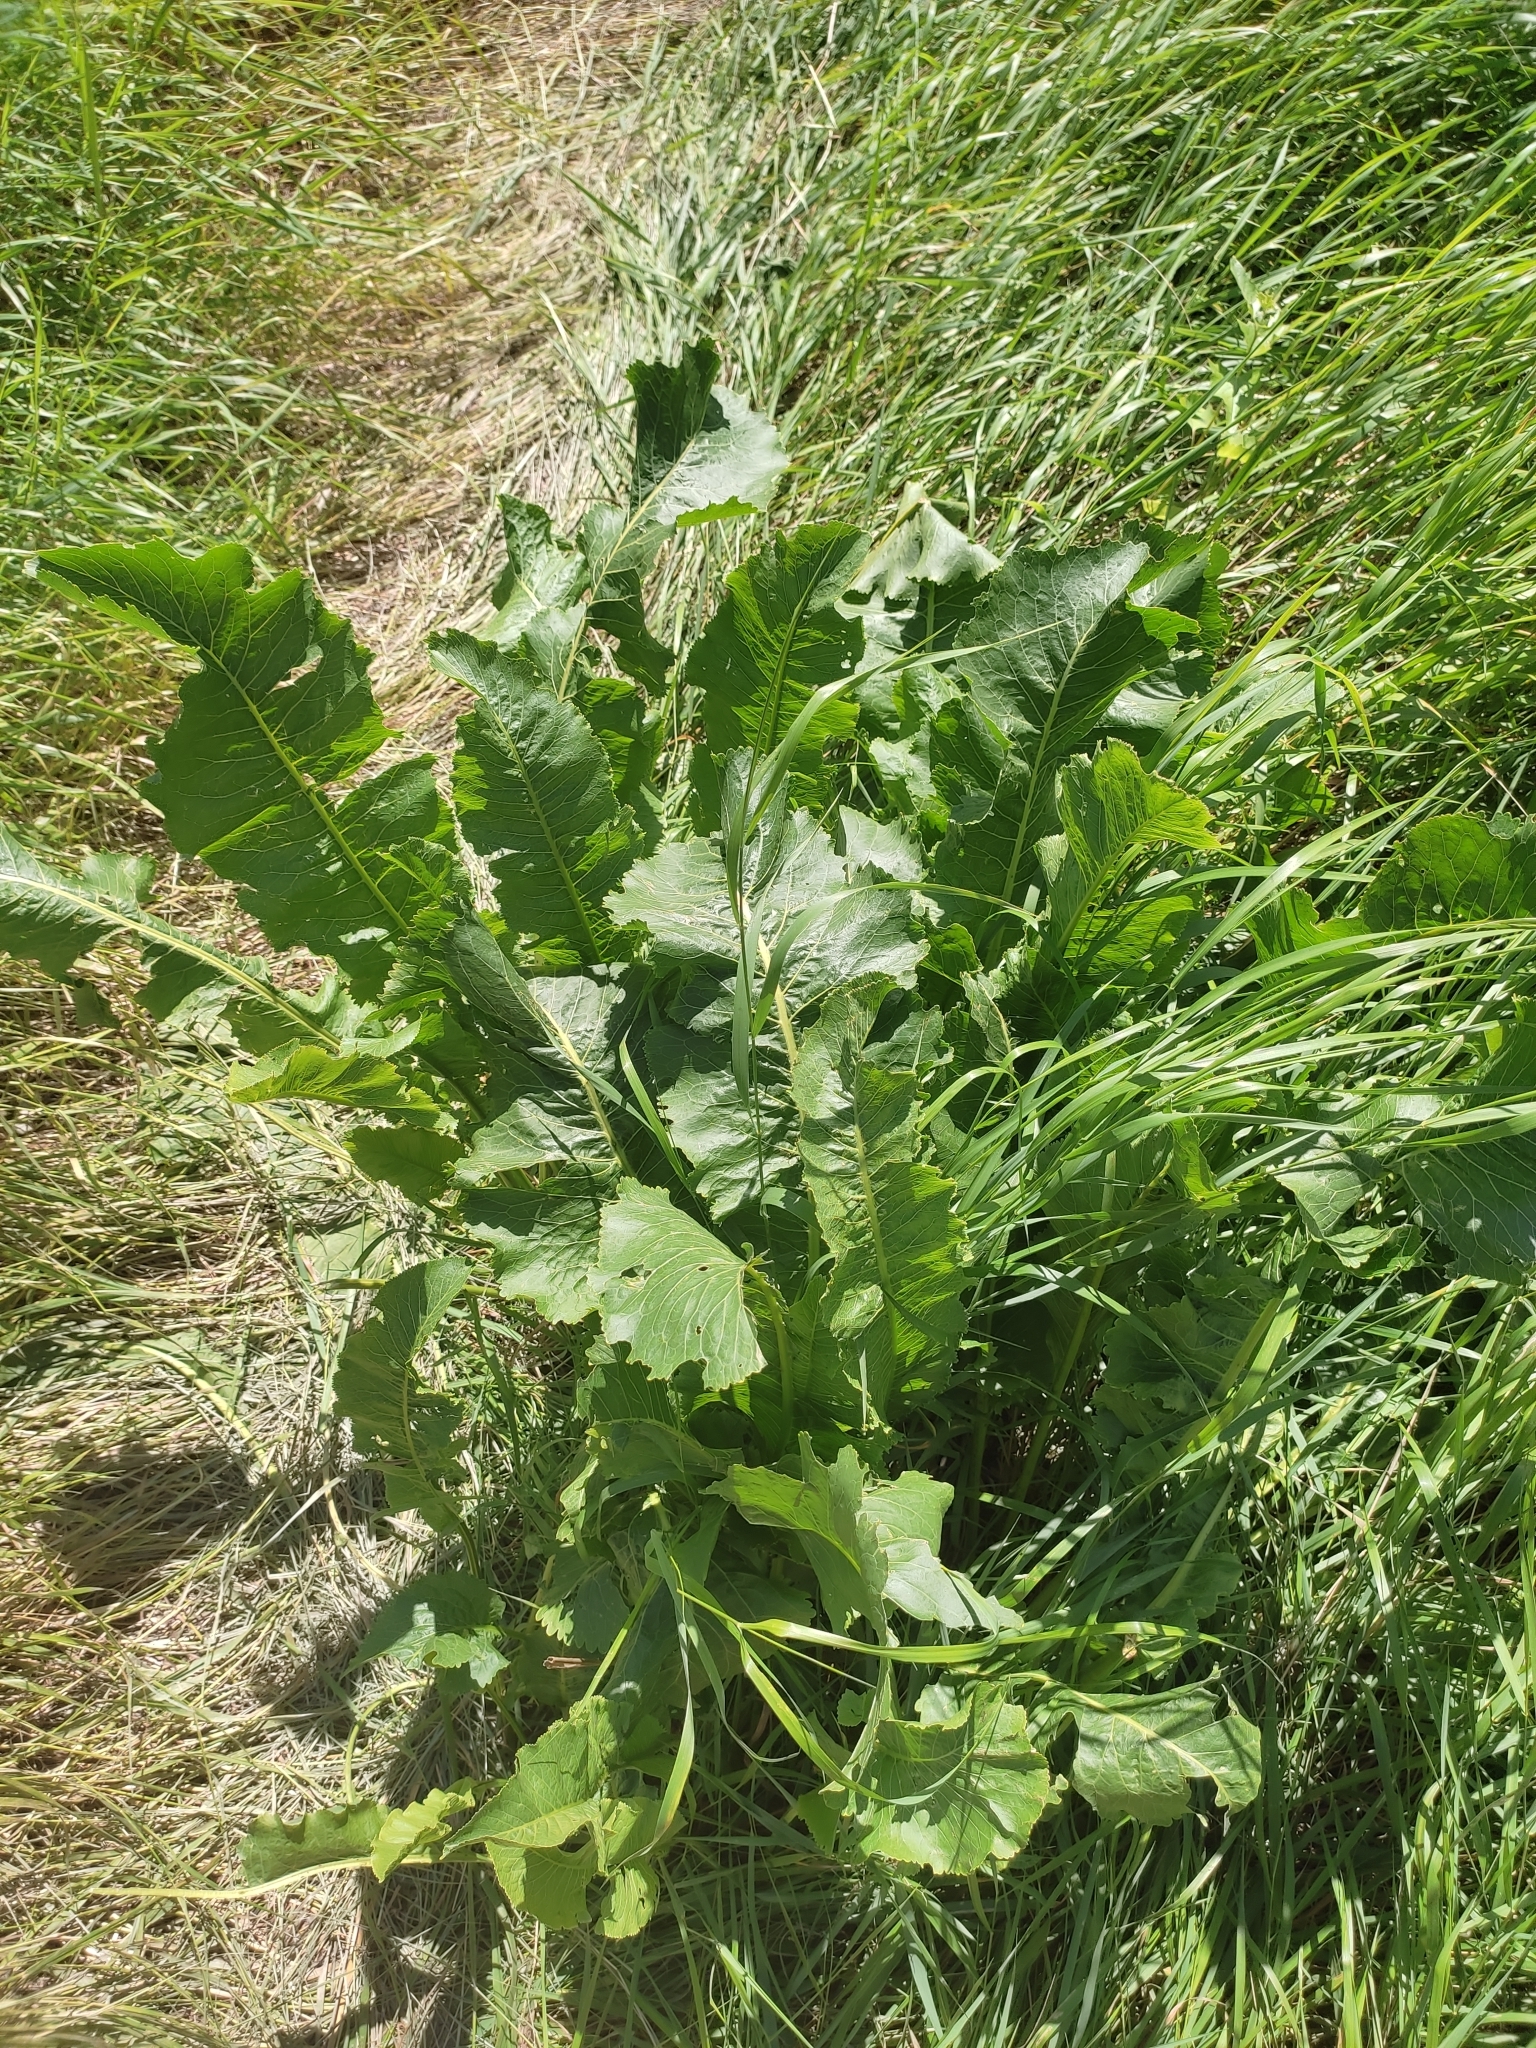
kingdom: Plantae
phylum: Tracheophyta
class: Magnoliopsida
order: Brassicales
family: Brassicaceae
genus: Armoracia
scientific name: Armoracia rusticana
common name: Horseradish
